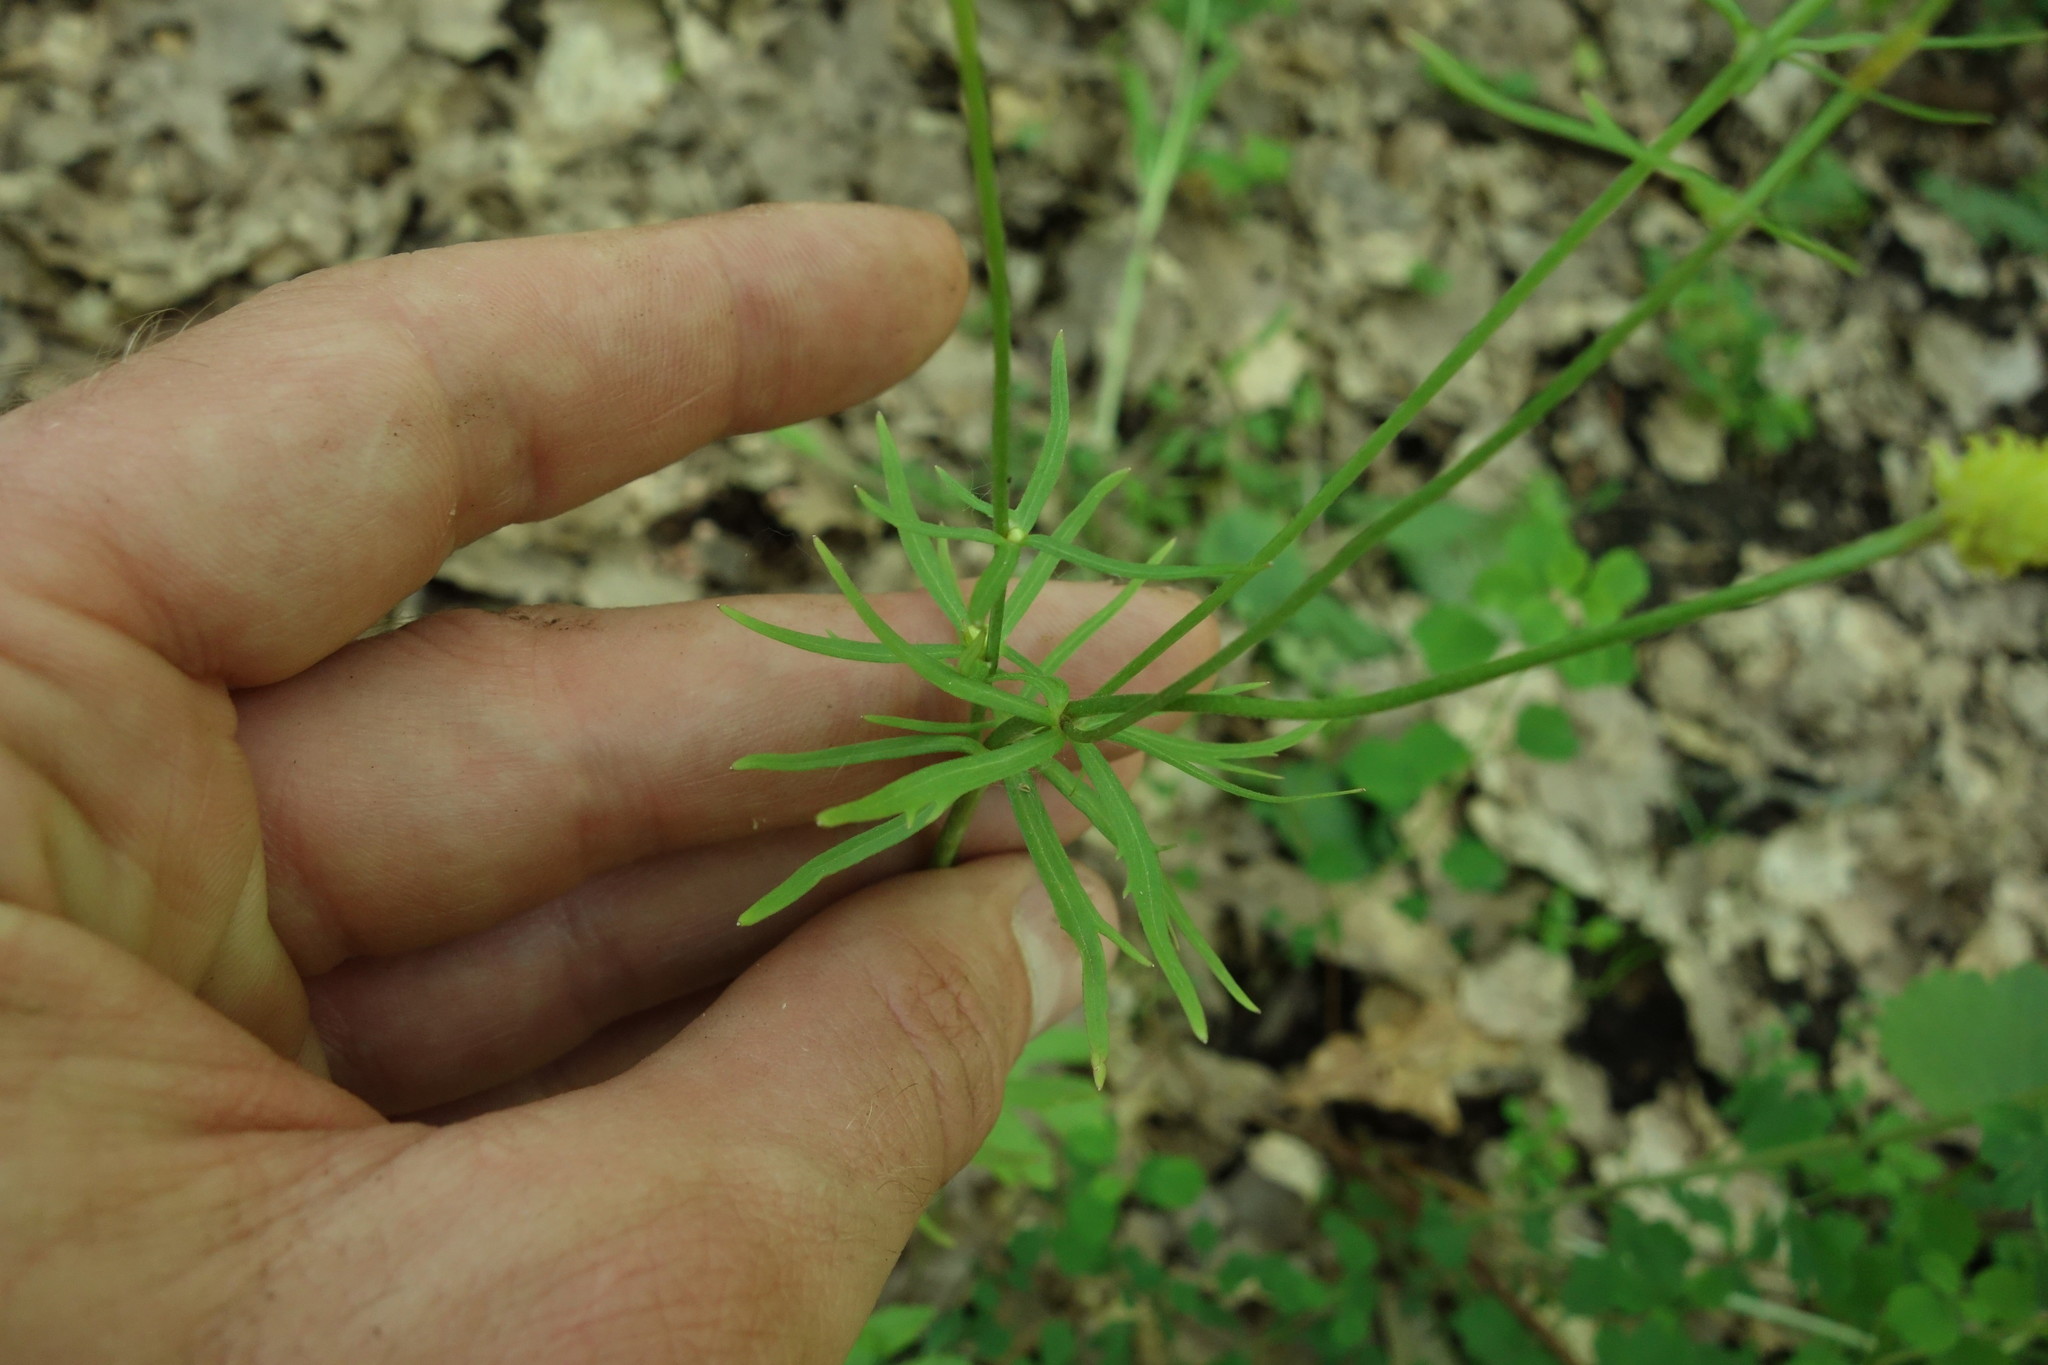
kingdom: Plantae
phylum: Tracheophyta
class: Magnoliopsida
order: Ranunculales
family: Ranunculaceae
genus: Ranunculus
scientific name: Ranunculus auricomus
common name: Goldilocks buttercup
